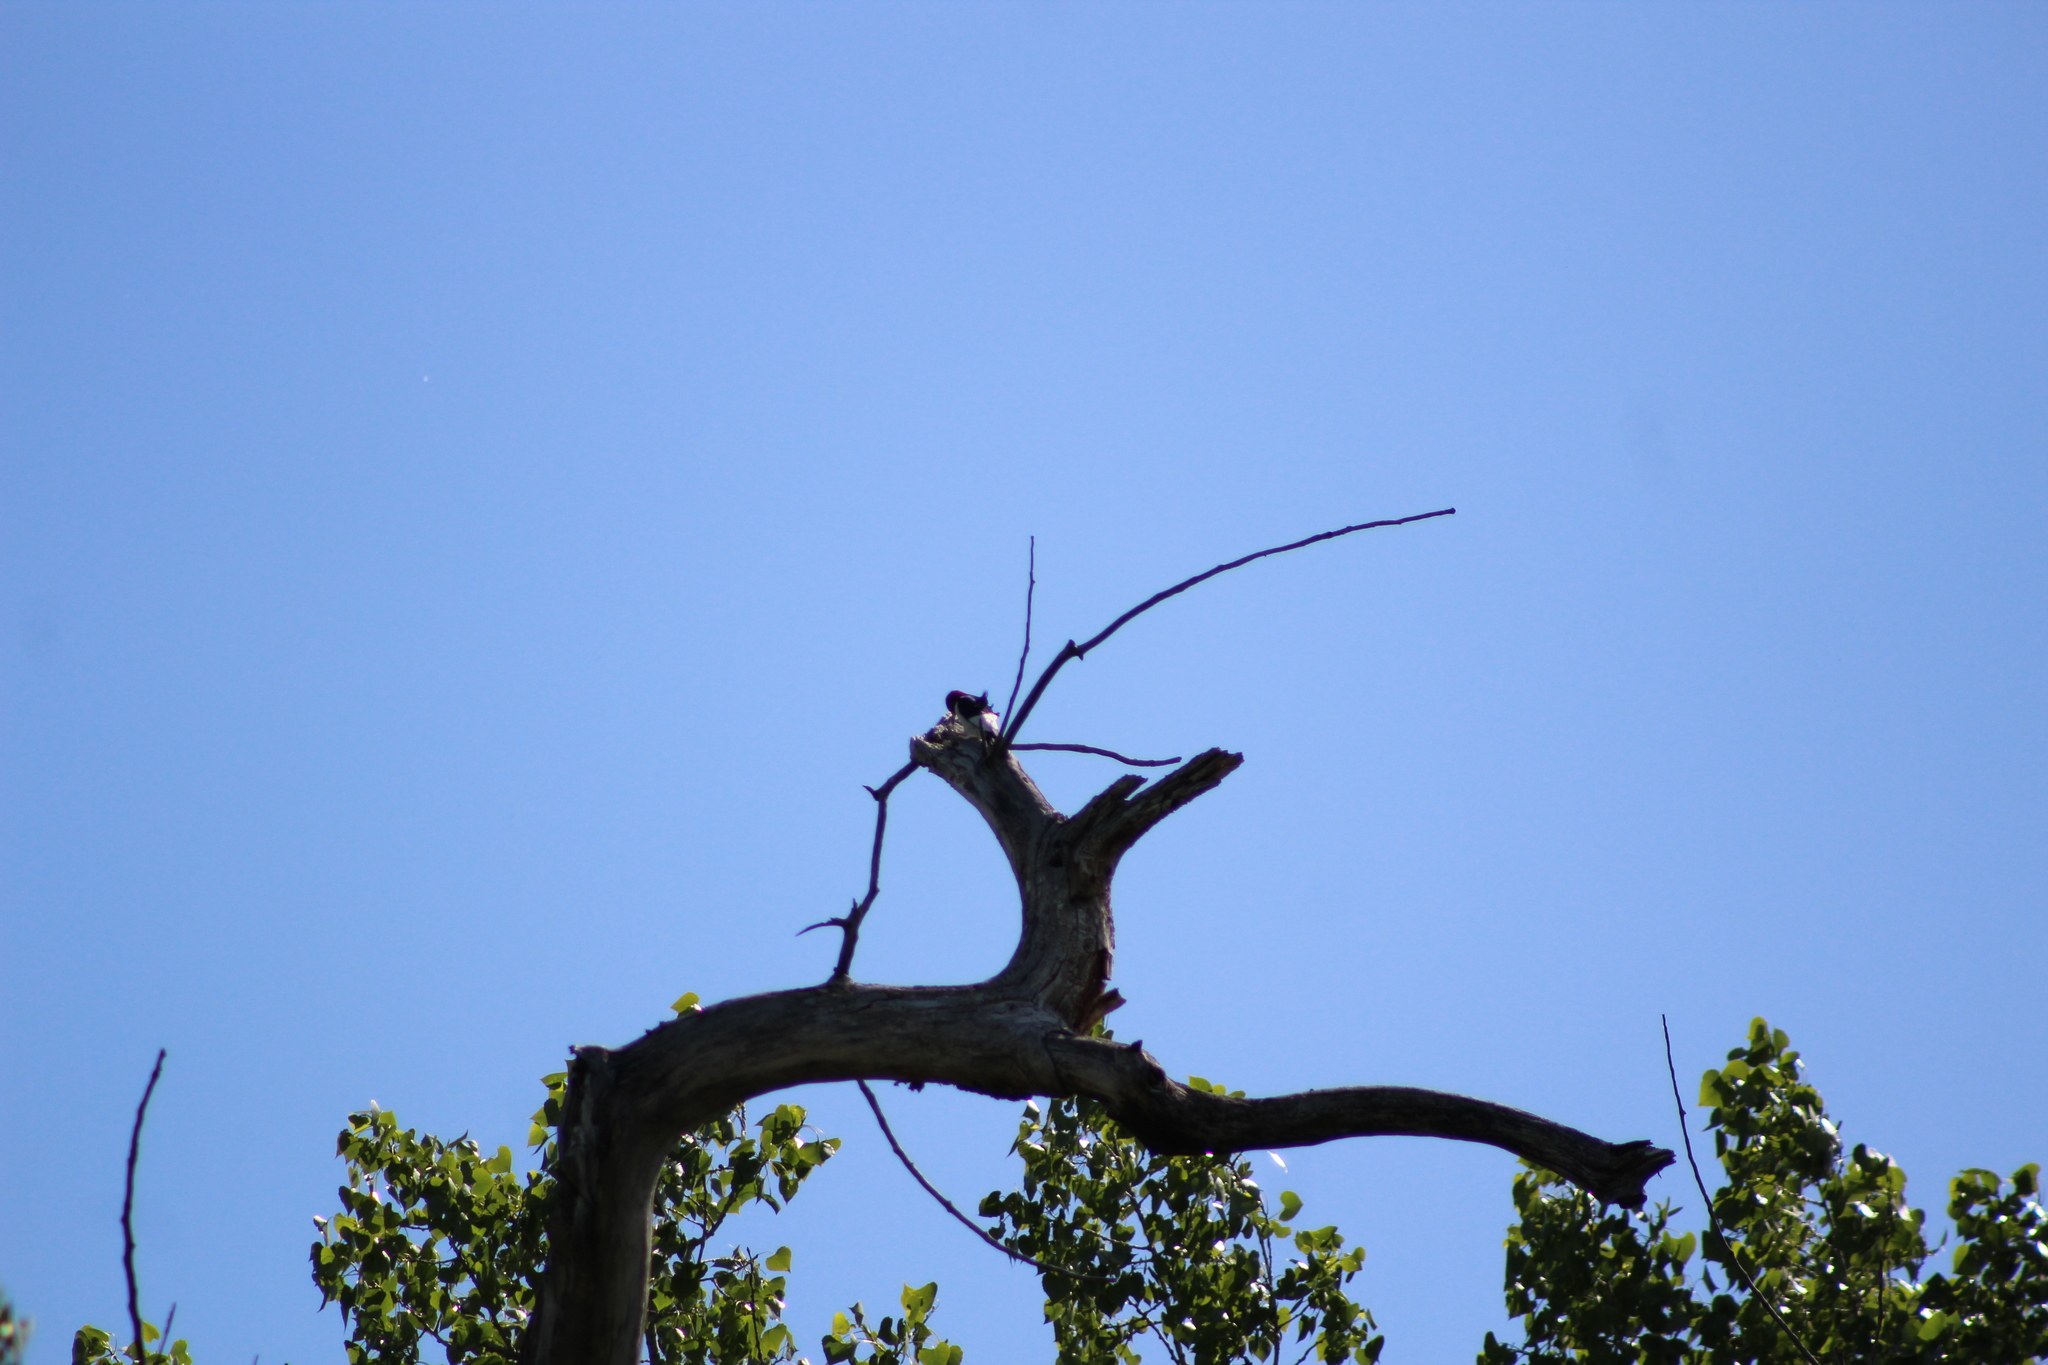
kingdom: Animalia
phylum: Chordata
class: Aves
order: Piciformes
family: Picidae
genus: Melanerpes
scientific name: Melanerpes erythrocephalus
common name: Red-headed woodpecker
